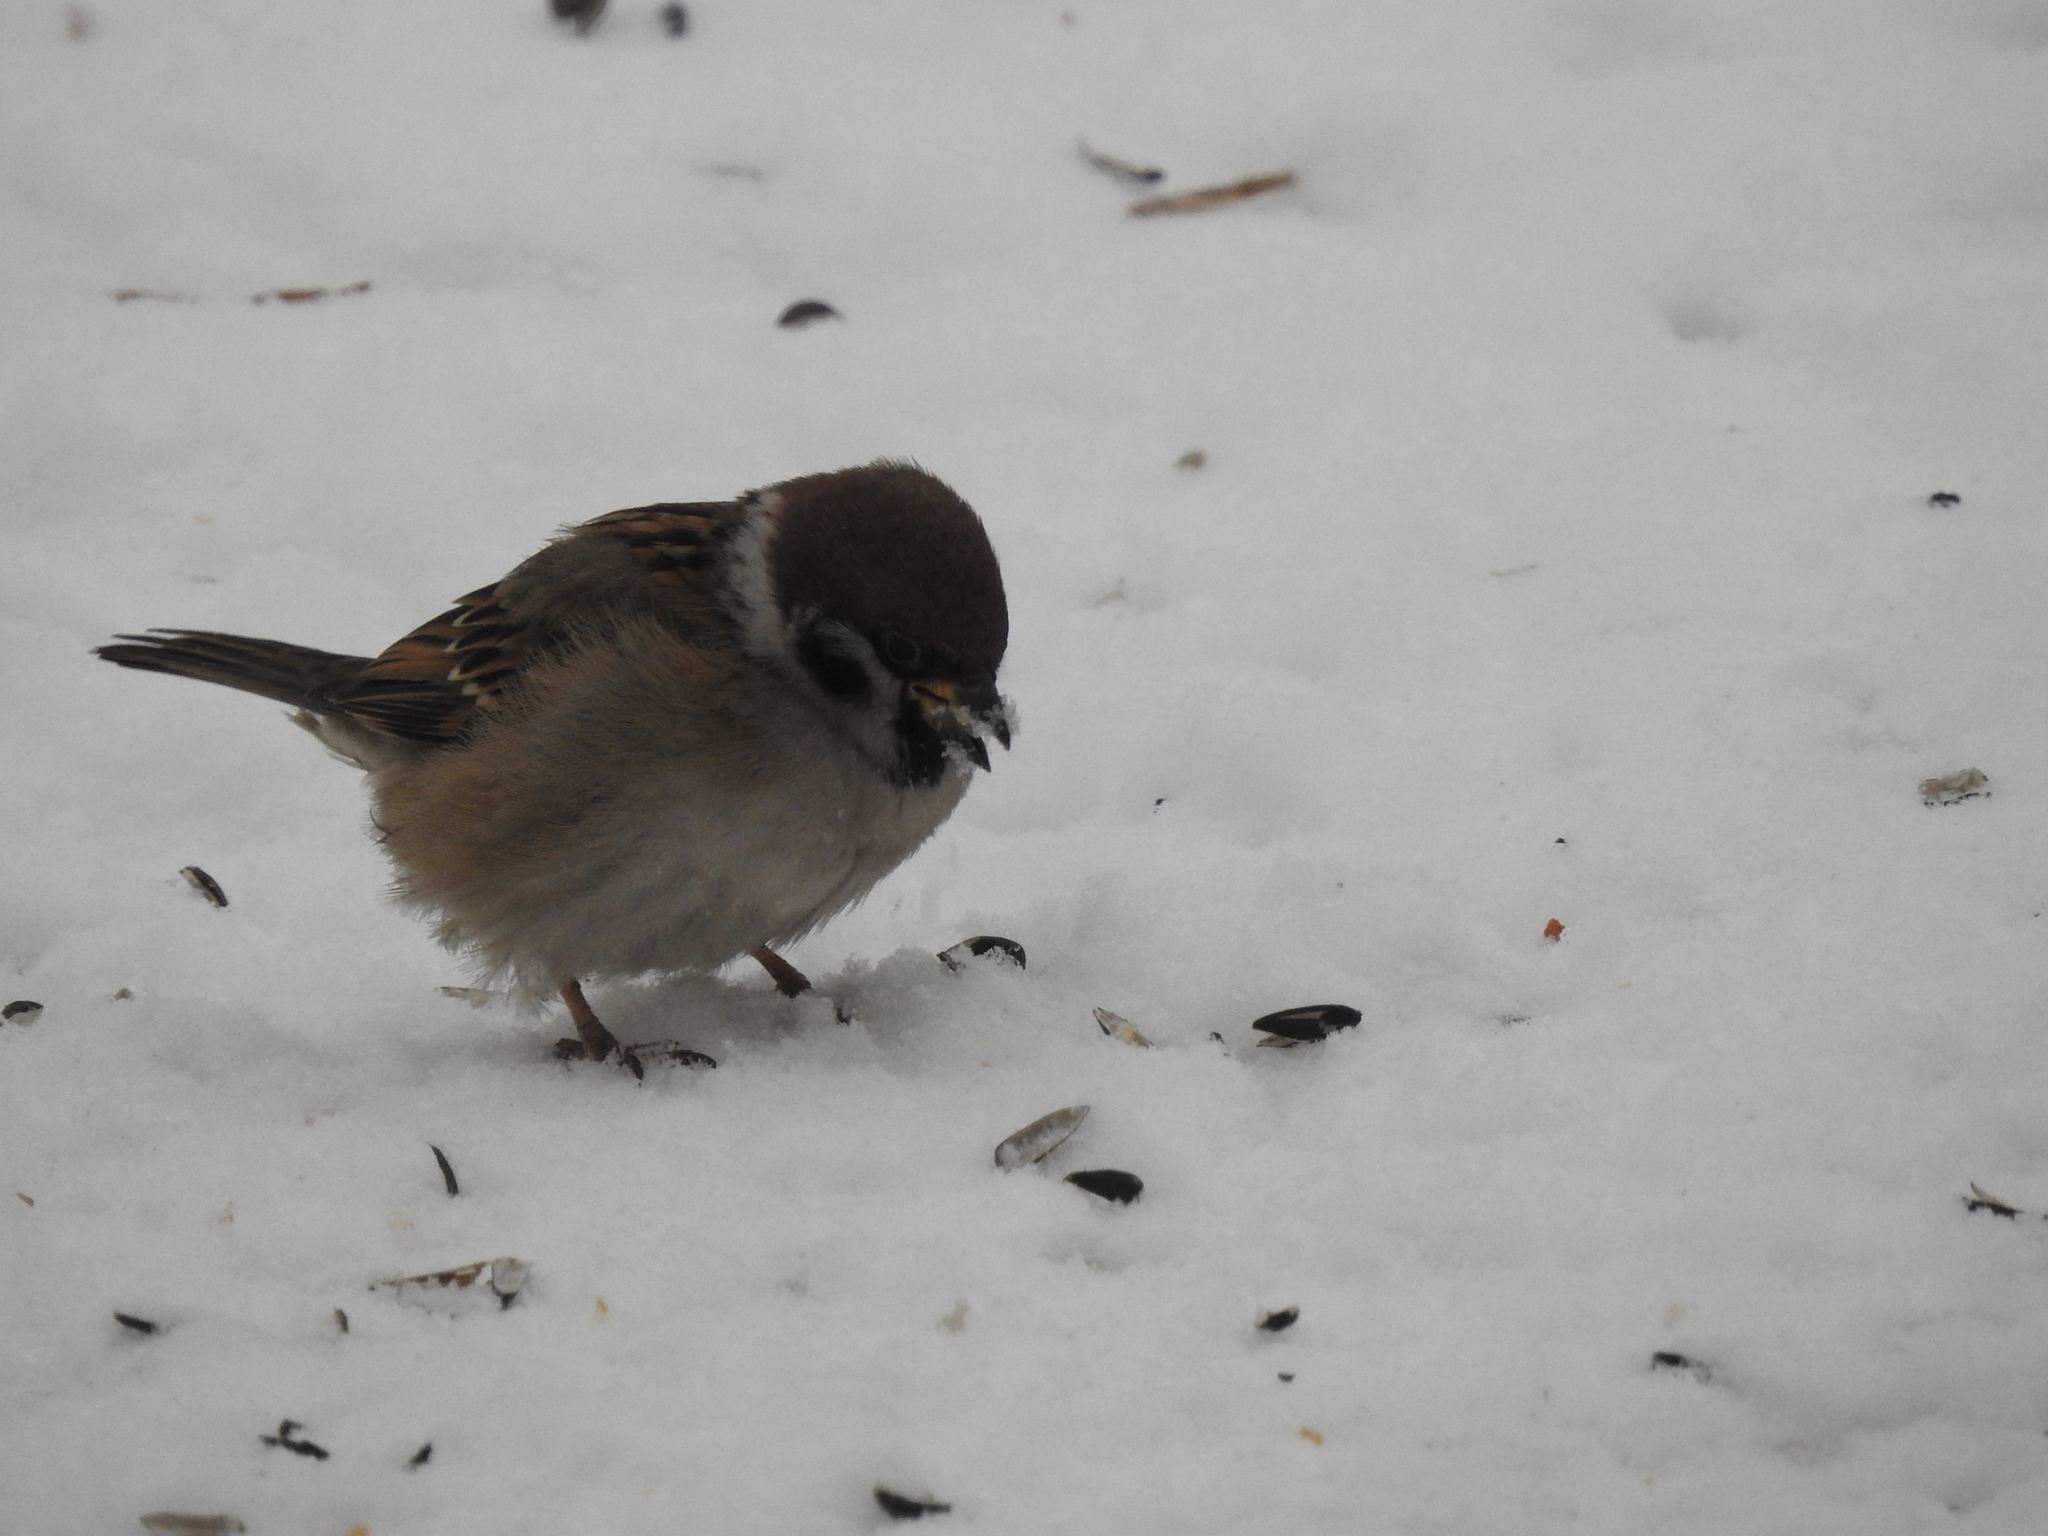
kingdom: Animalia
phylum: Chordata
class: Aves
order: Passeriformes
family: Passeridae
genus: Passer
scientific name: Passer montanus
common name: Eurasian tree sparrow
